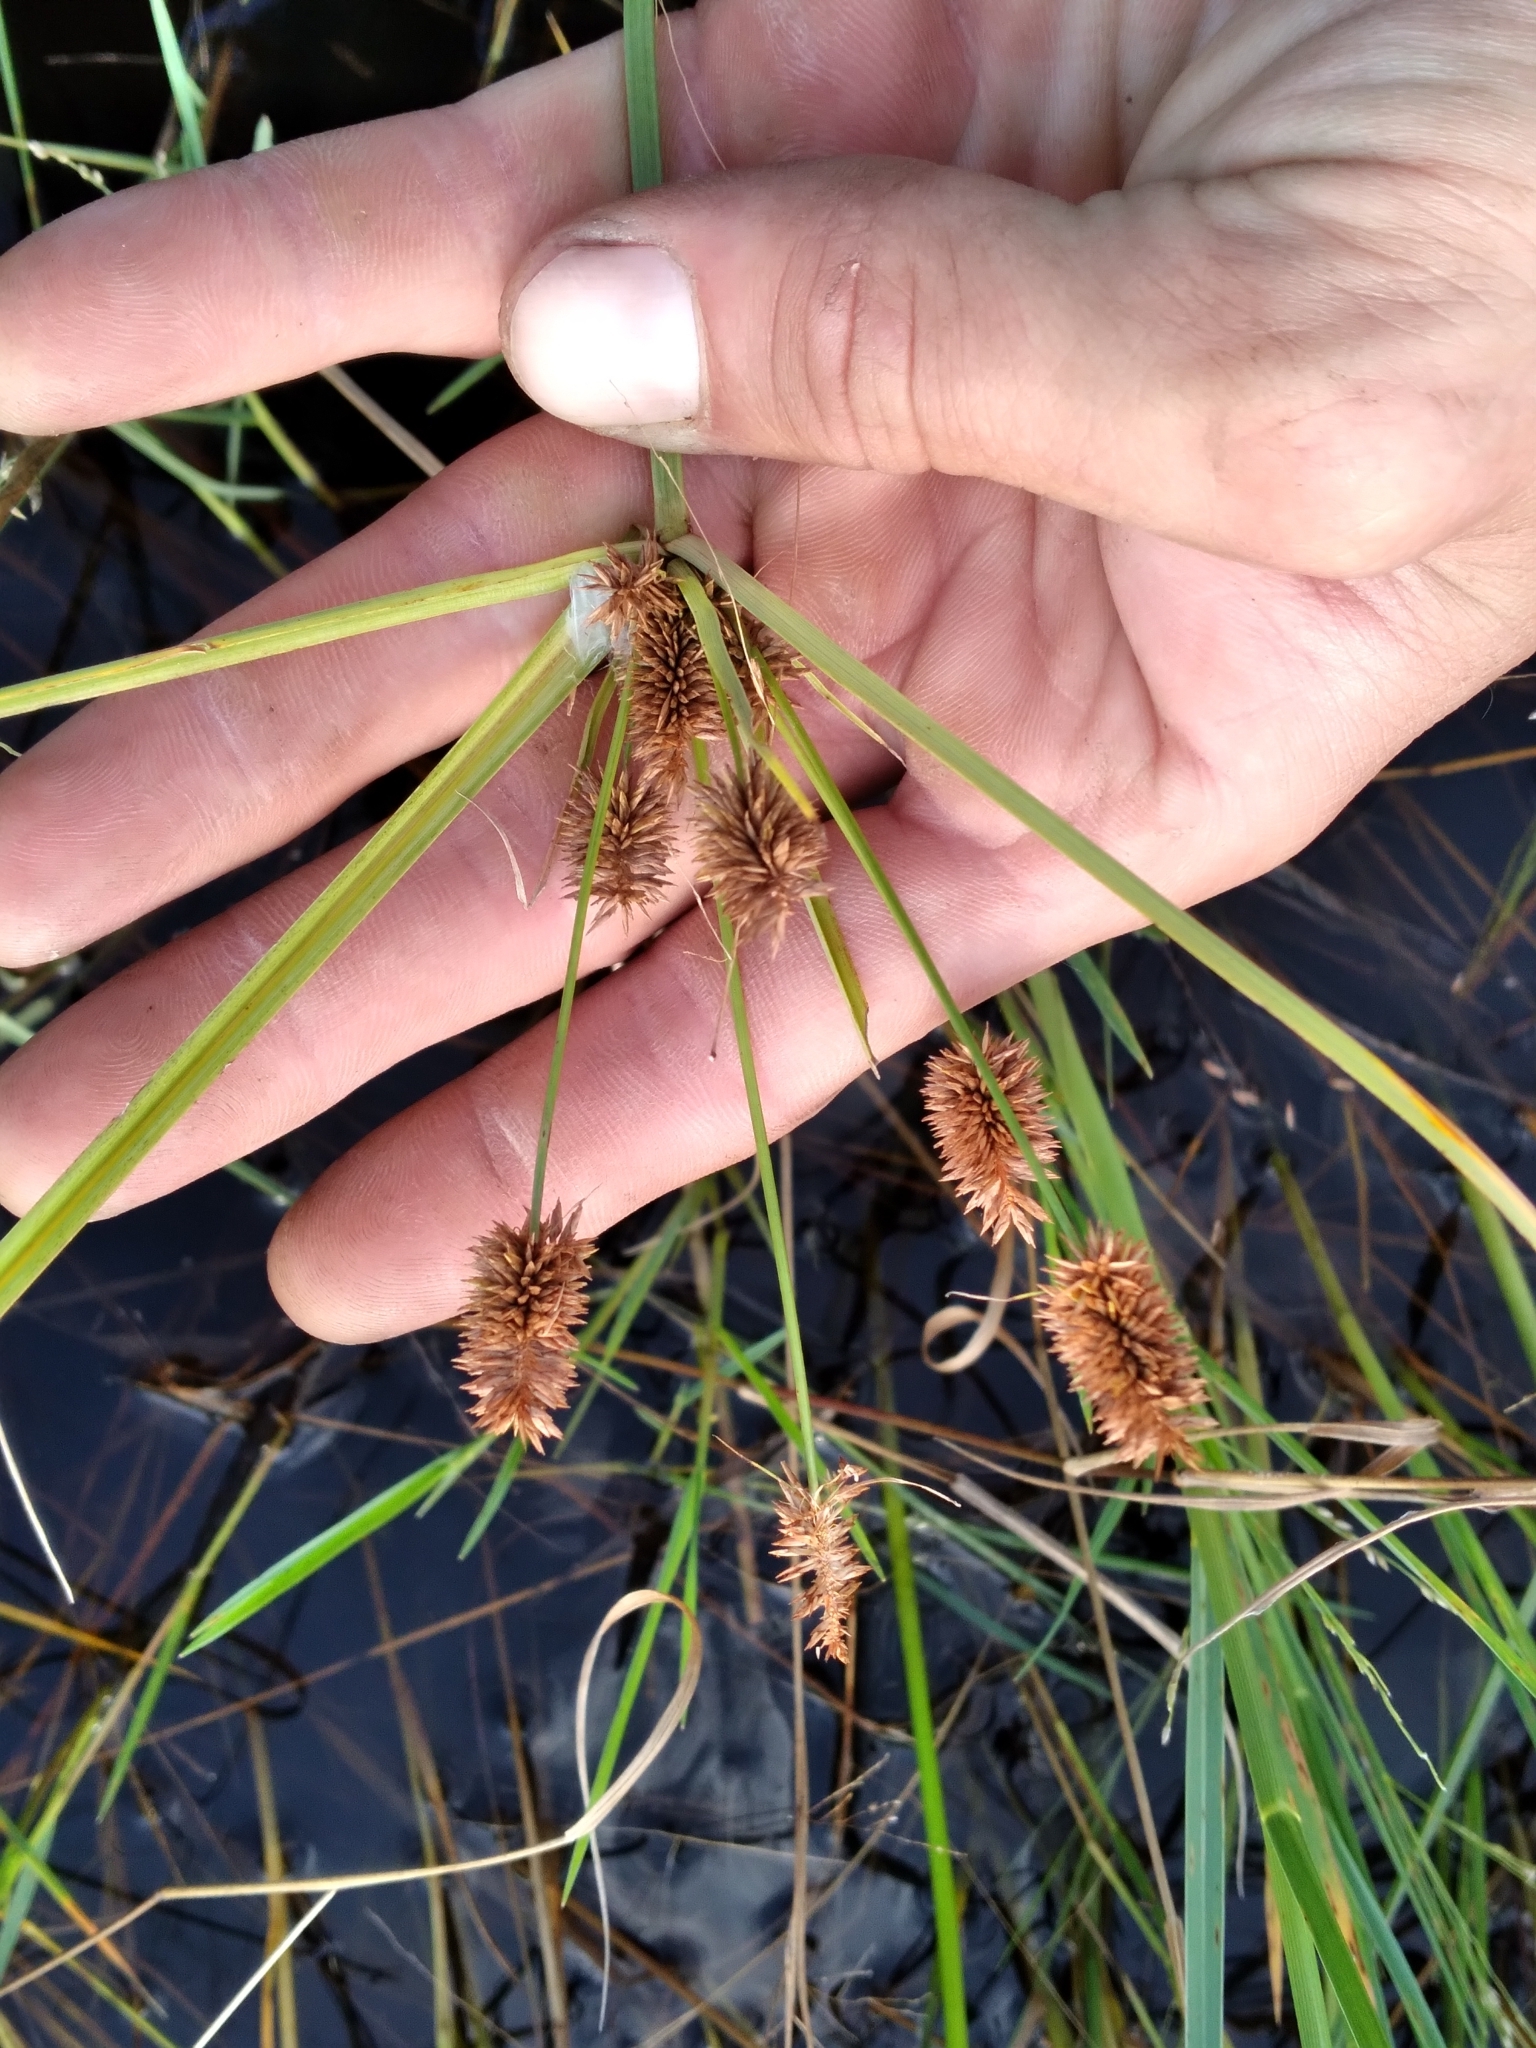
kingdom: Plantae
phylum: Tracheophyta
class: Liliopsida
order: Poales
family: Cyperaceae
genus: Cyperus
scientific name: Cyperus retrorsus
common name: Pinebarren flat sedge
